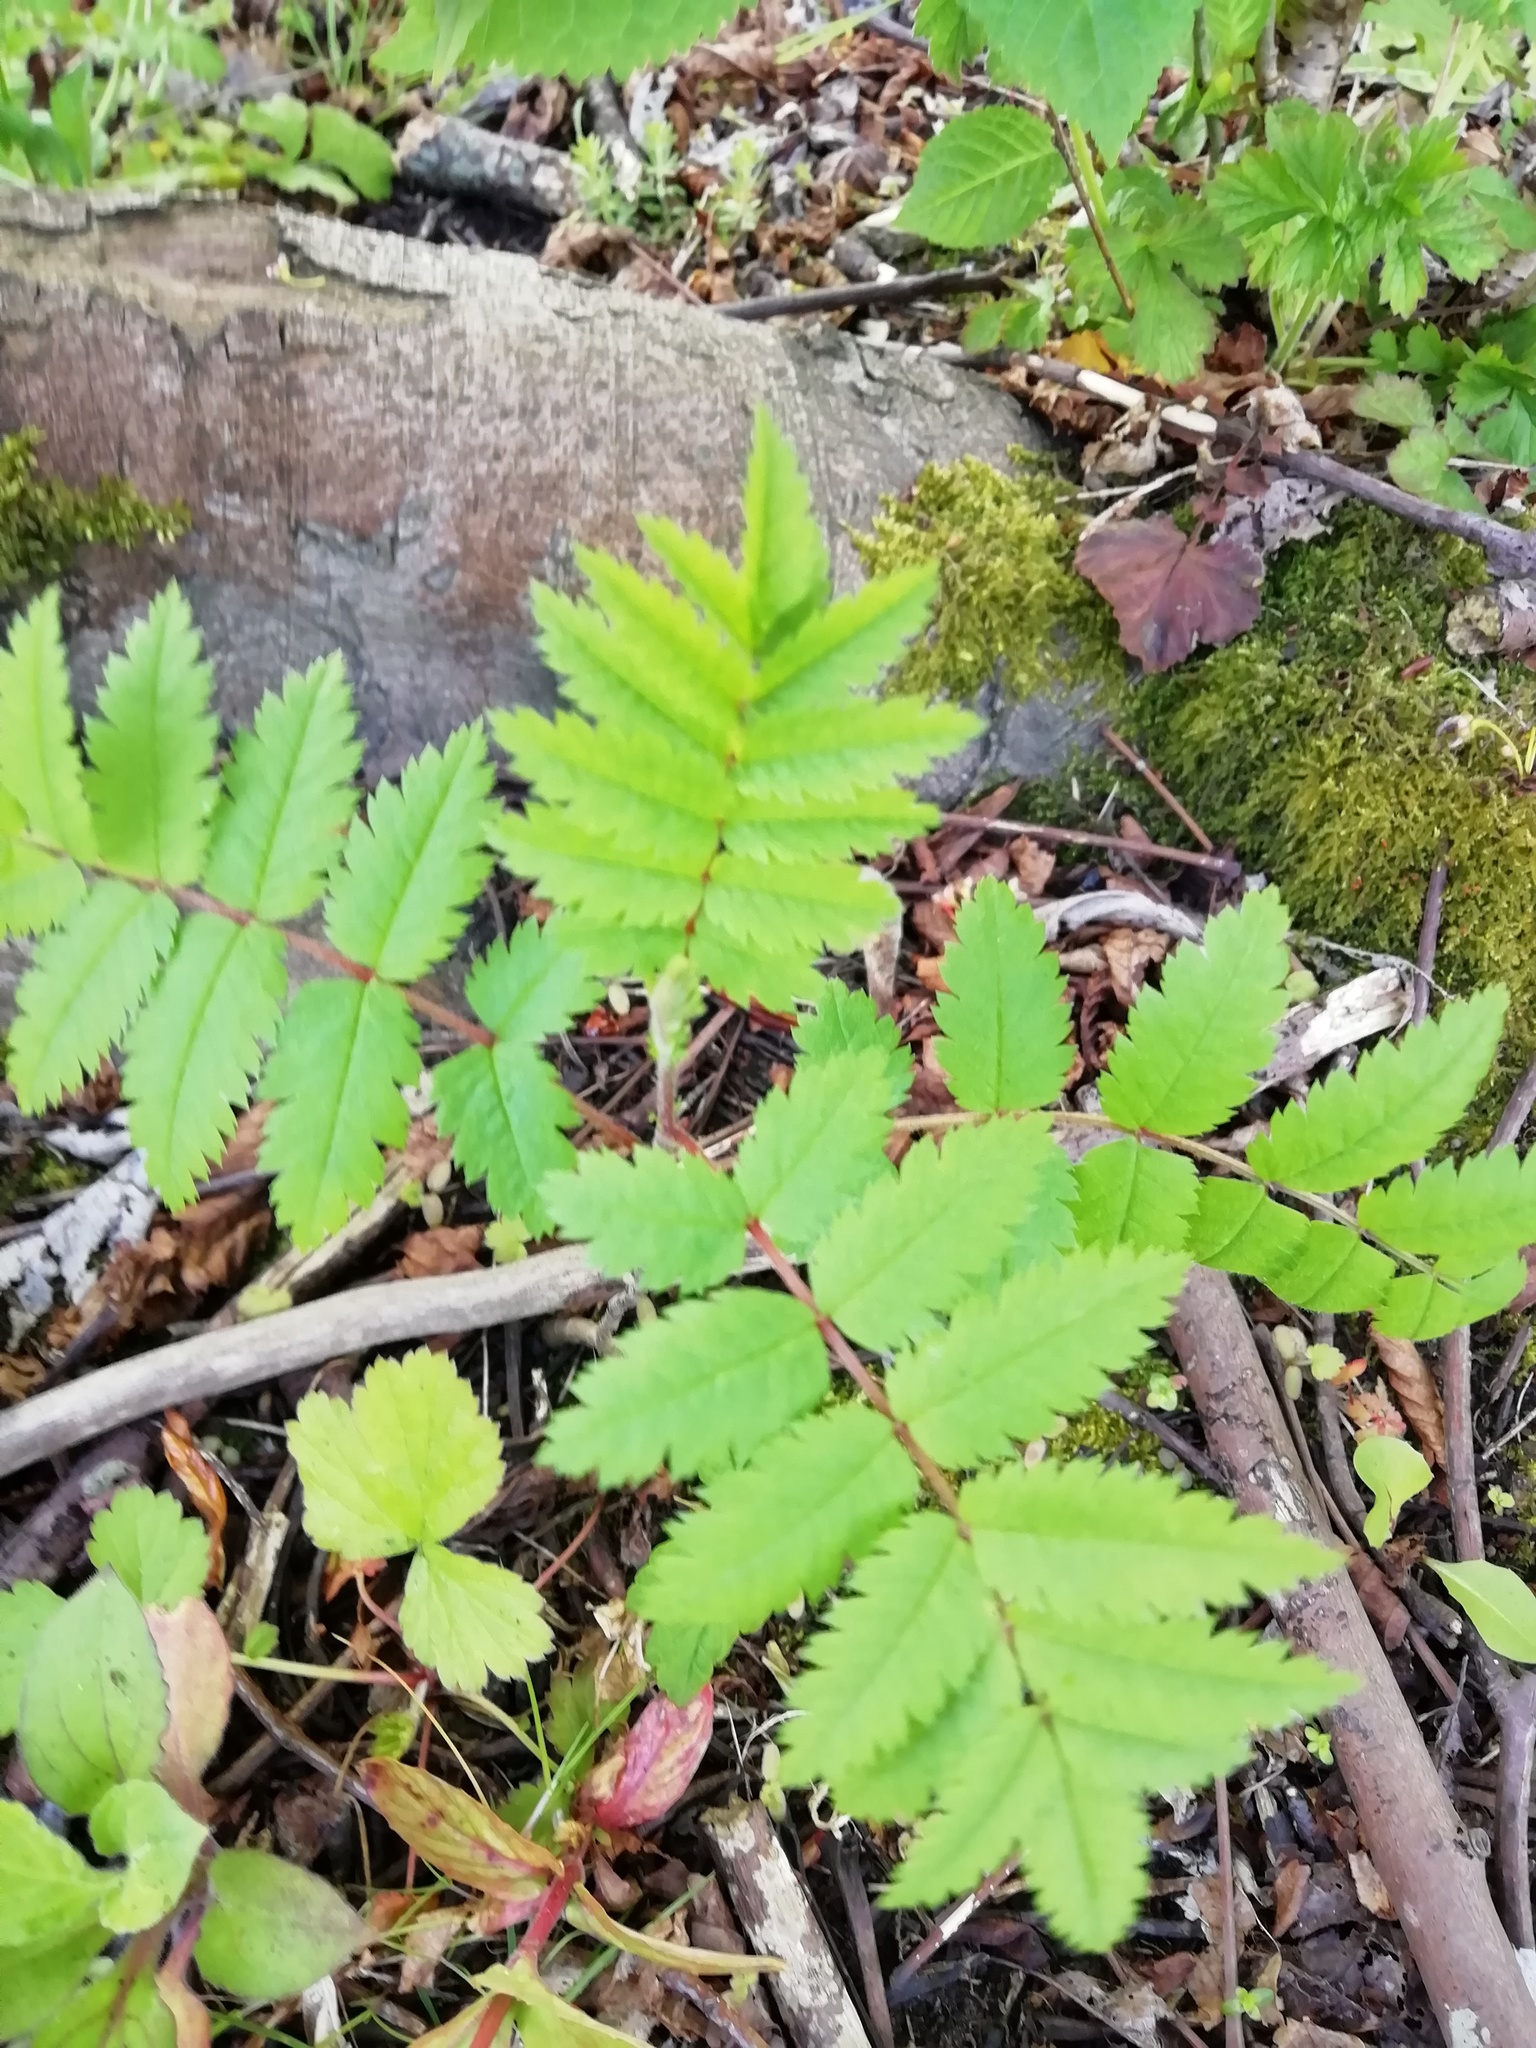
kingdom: Plantae
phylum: Tracheophyta
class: Magnoliopsida
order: Rosales
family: Rosaceae
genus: Sorbus
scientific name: Sorbus aucuparia
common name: Rowan
